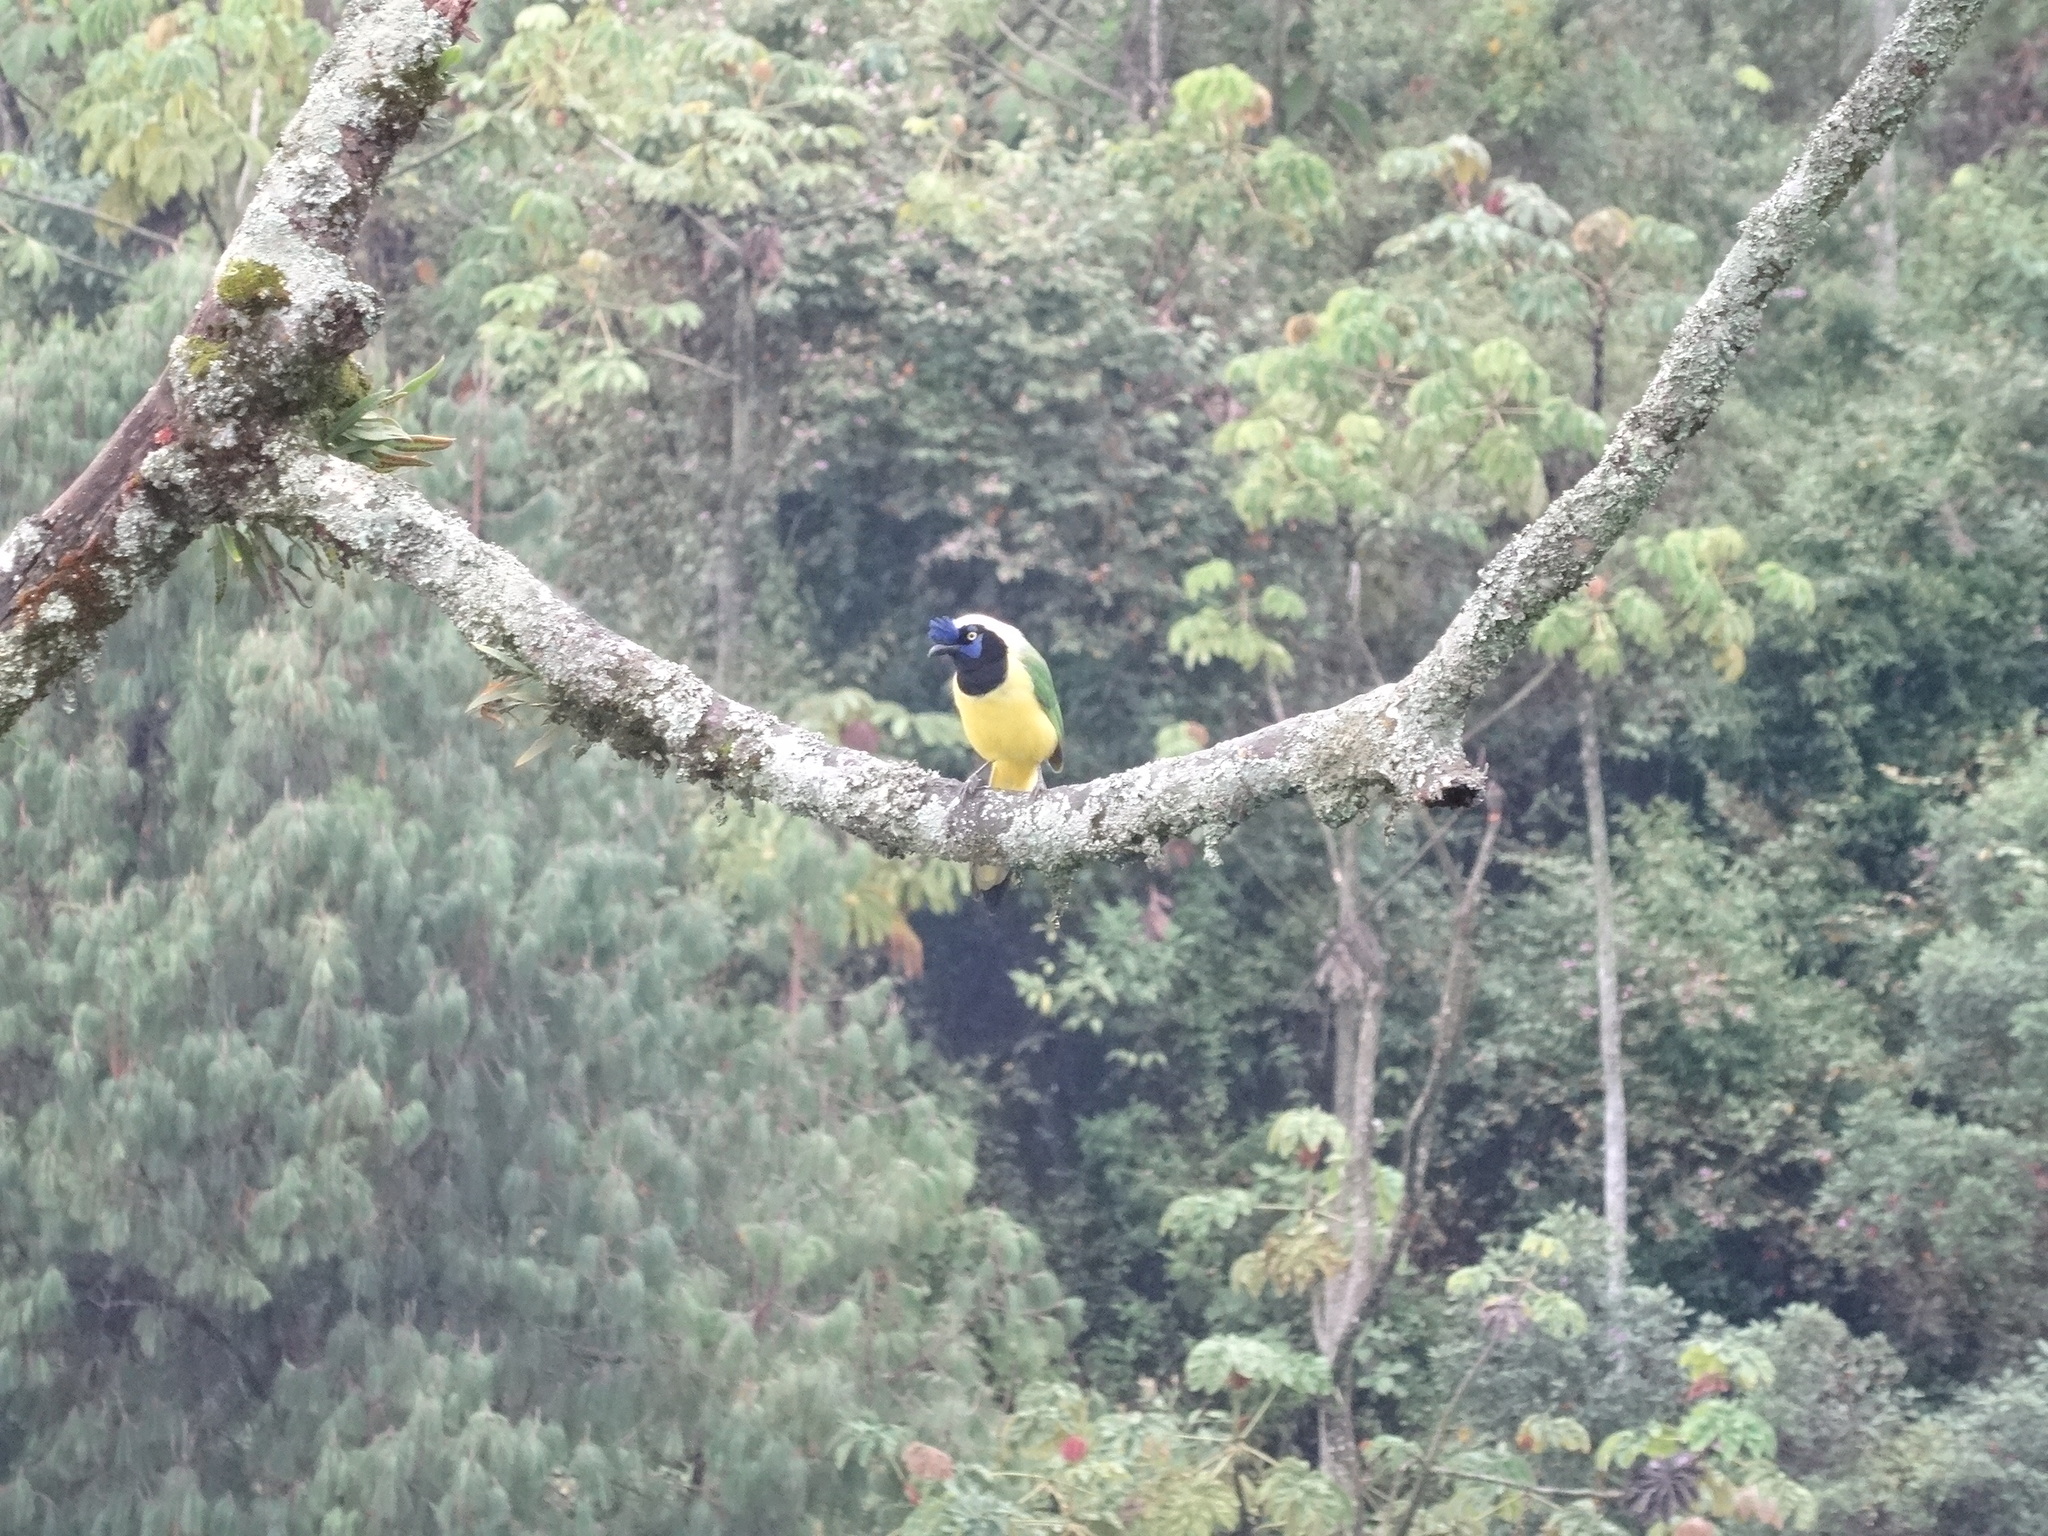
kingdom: Animalia
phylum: Chordata
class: Aves
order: Passeriformes
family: Corvidae
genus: Cyanocorax
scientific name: Cyanocorax yncas
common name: Green jay
